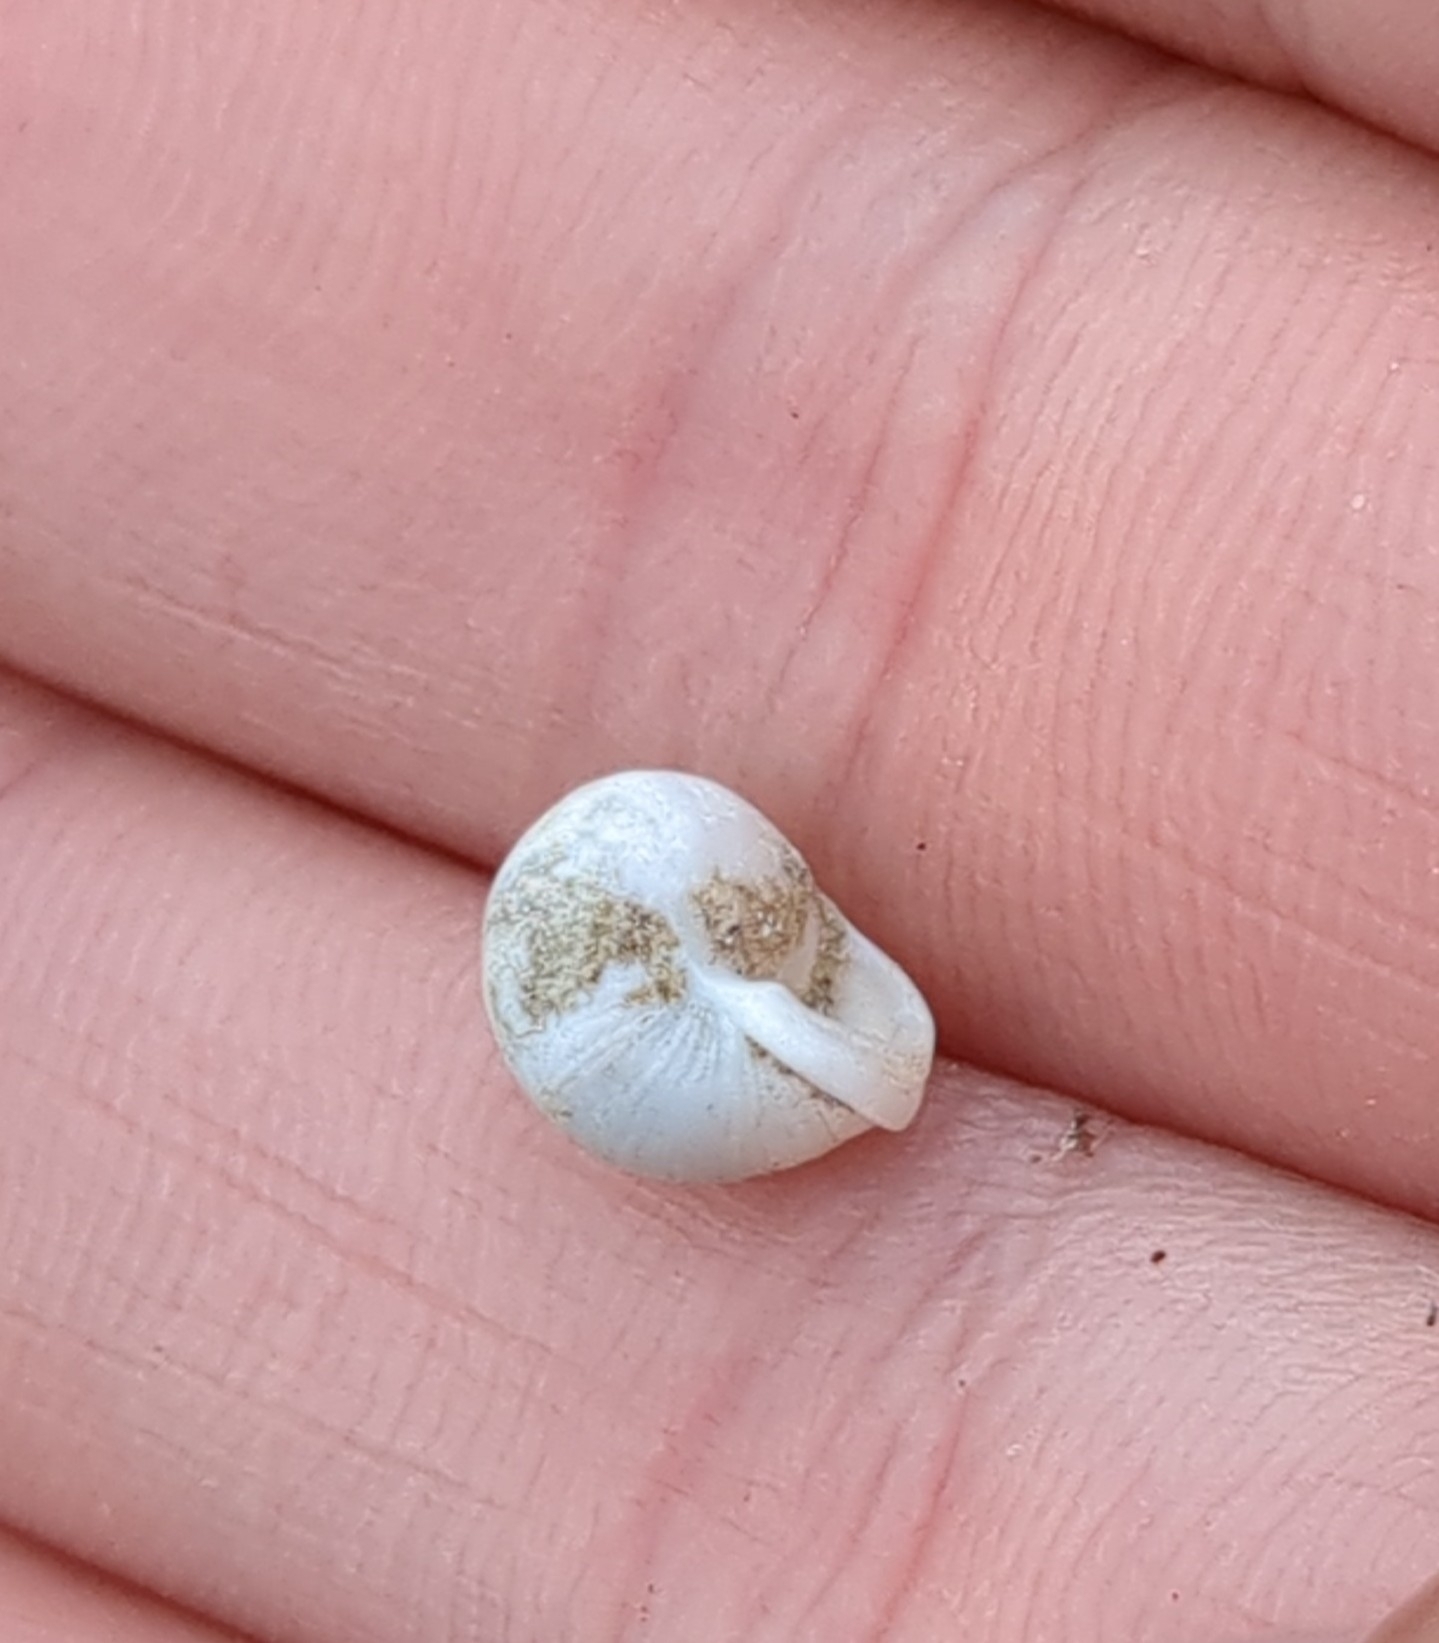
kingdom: Animalia
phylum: Mollusca
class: Gastropoda
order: Cycloneritida
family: Helicinidae
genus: Helicina
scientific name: Helicina orbiculata
